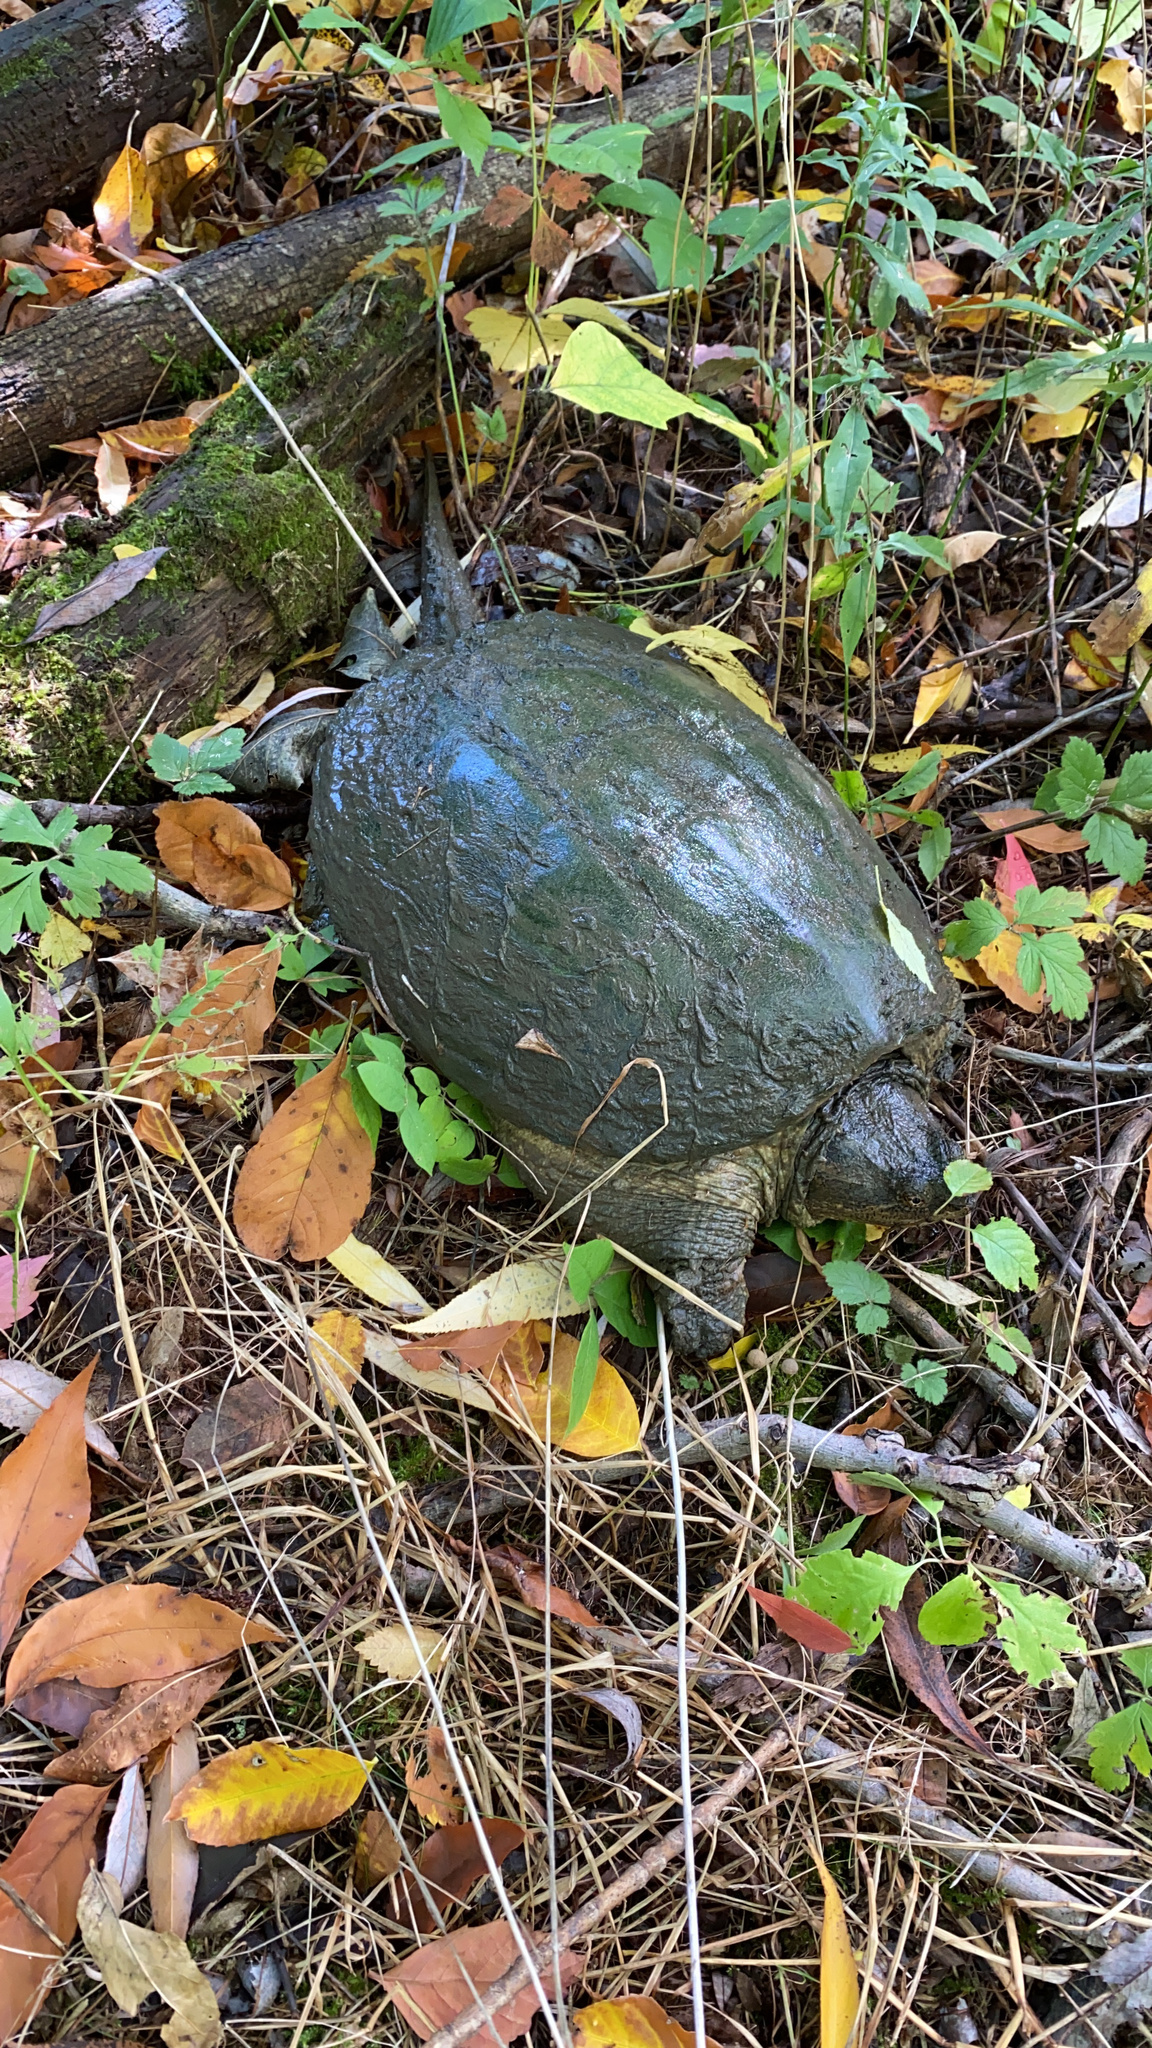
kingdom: Animalia
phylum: Chordata
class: Testudines
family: Chelydridae
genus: Chelydra
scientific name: Chelydra serpentina
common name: Common snapping turtle
